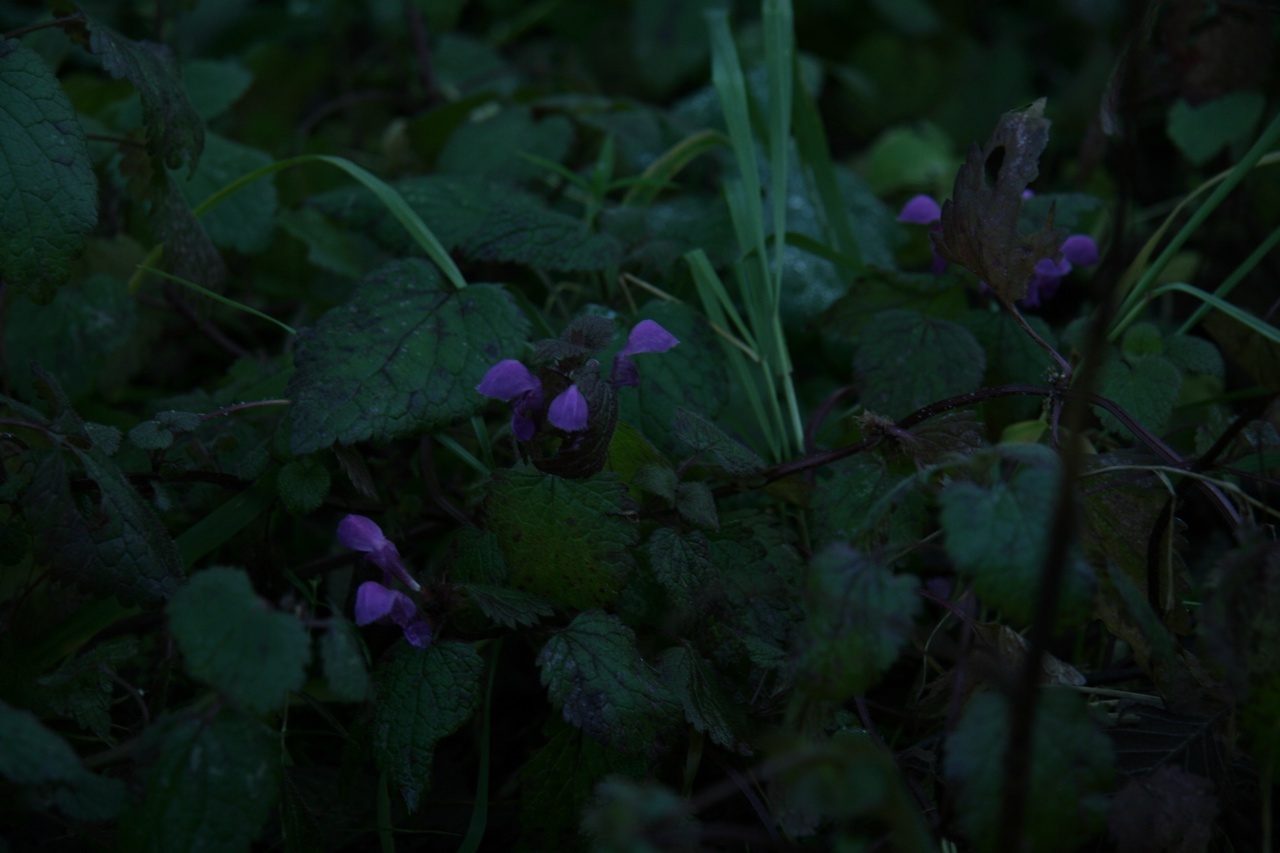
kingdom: Plantae
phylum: Tracheophyta
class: Magnoliopsida
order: Lamiales
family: Lamiaceae
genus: Lamium
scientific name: Lamium maculatum
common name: Spotted dead-nettle
